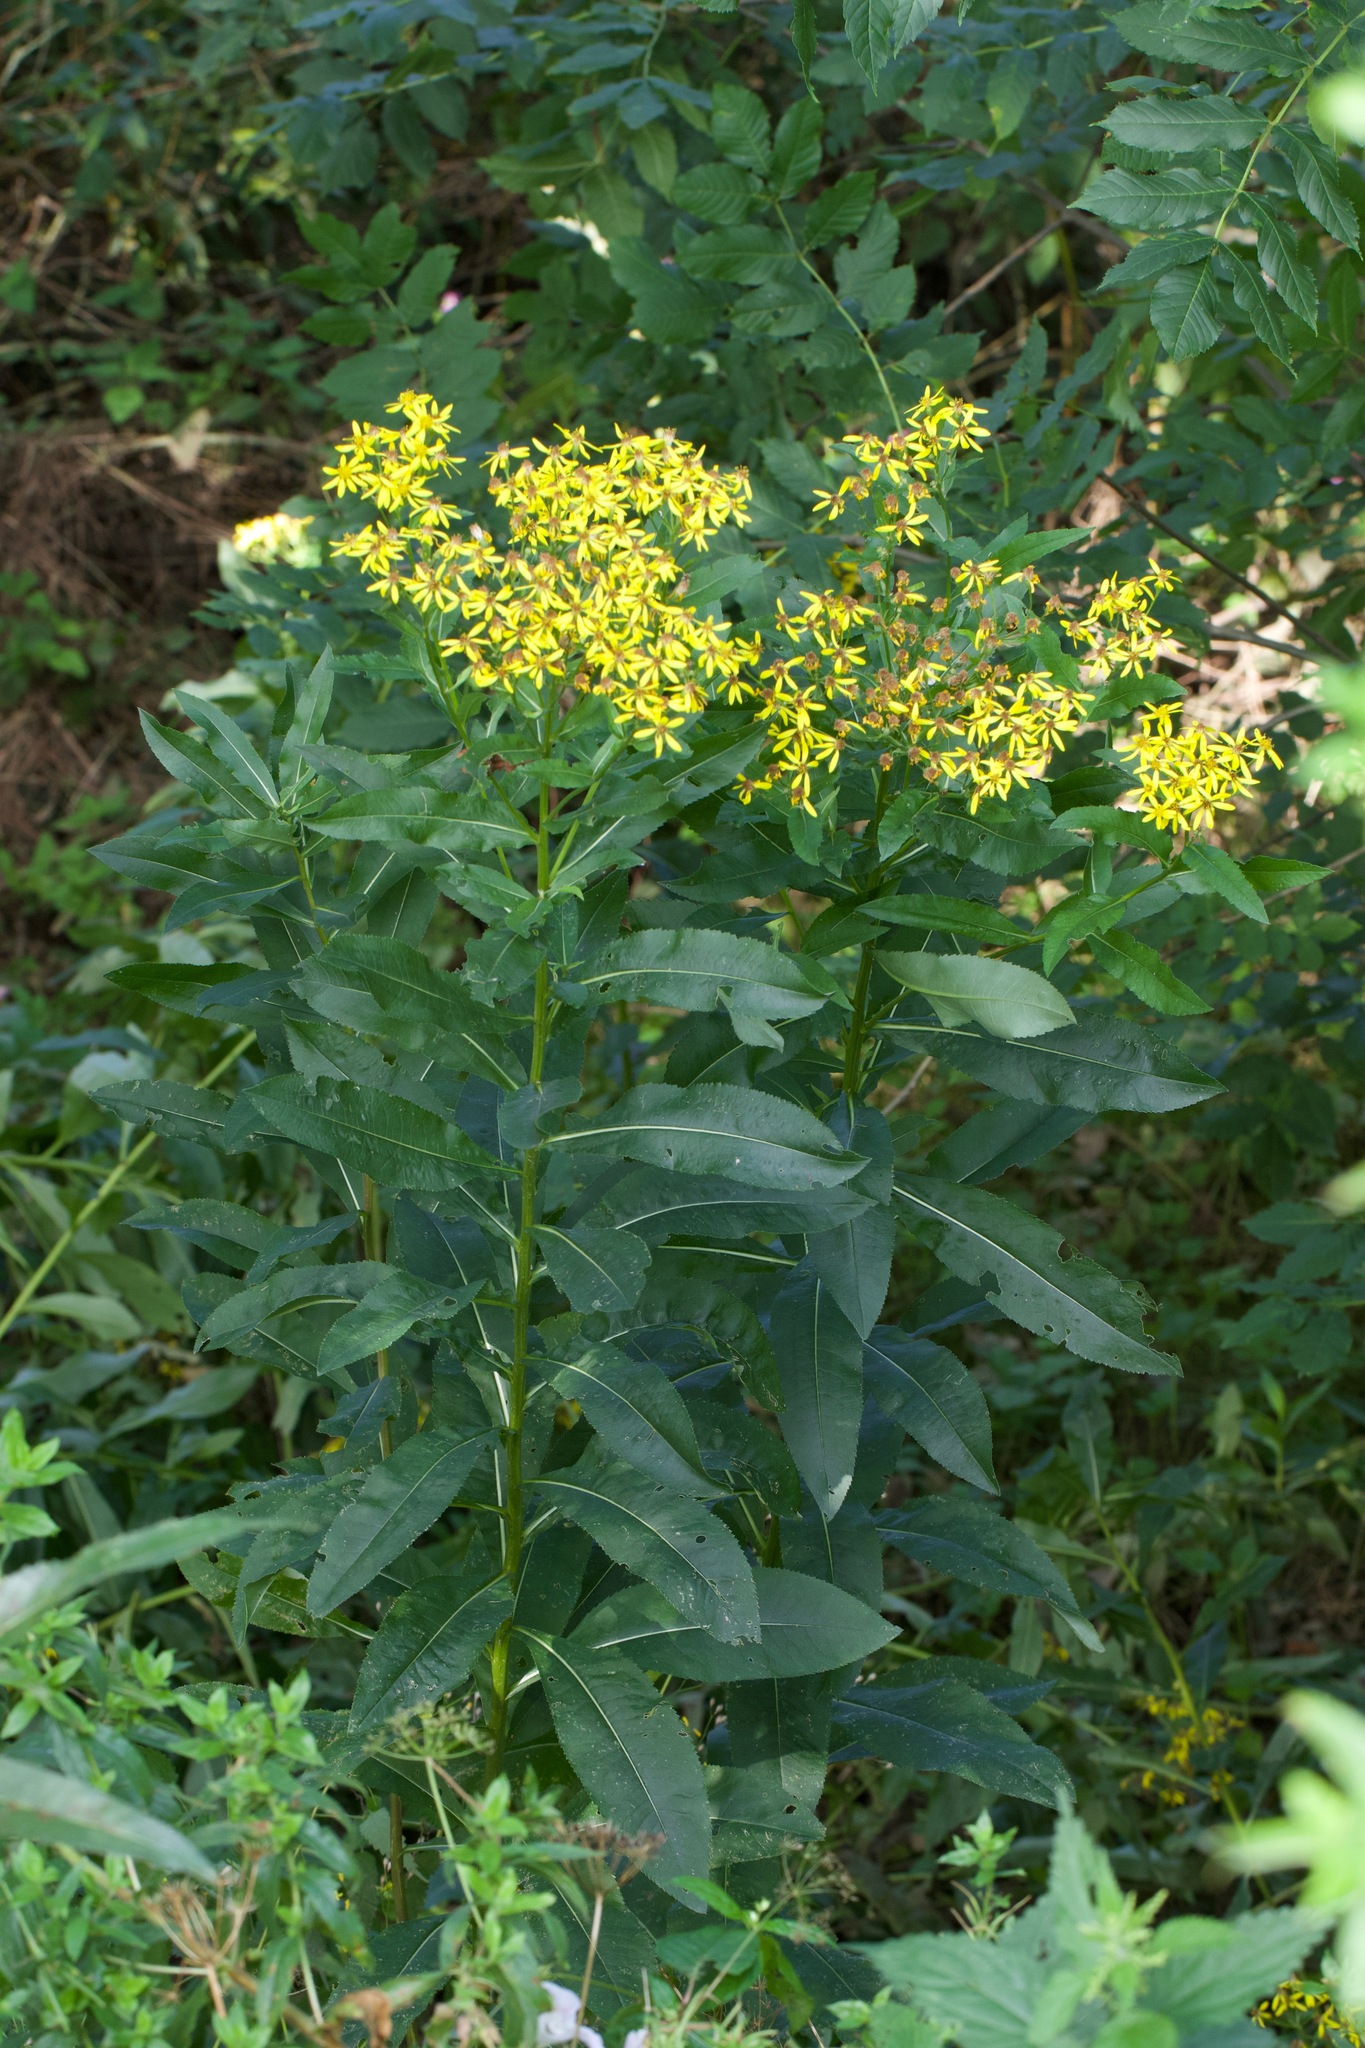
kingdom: Plantae
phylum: Tracheophyta
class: Magnoliopsida
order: Asterales
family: Asteraceae
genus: Senecio
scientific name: Senecio sarracenicus
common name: Broad-leaved ragwort
